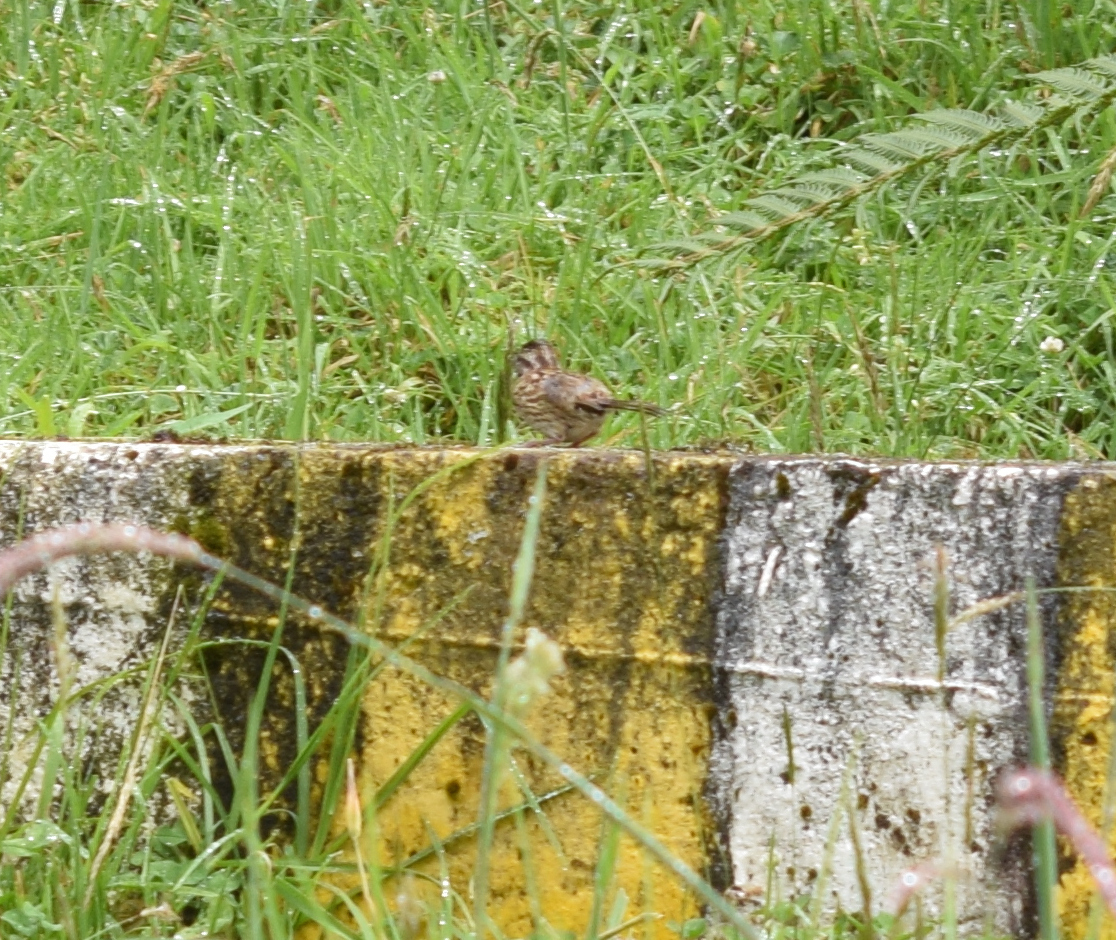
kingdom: Animalia
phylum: Chordata
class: Aves
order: Passeriformes
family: Passerellidae
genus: Zonotrichia
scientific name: Zonotrichia capensis
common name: Rufous-collared sparrow
